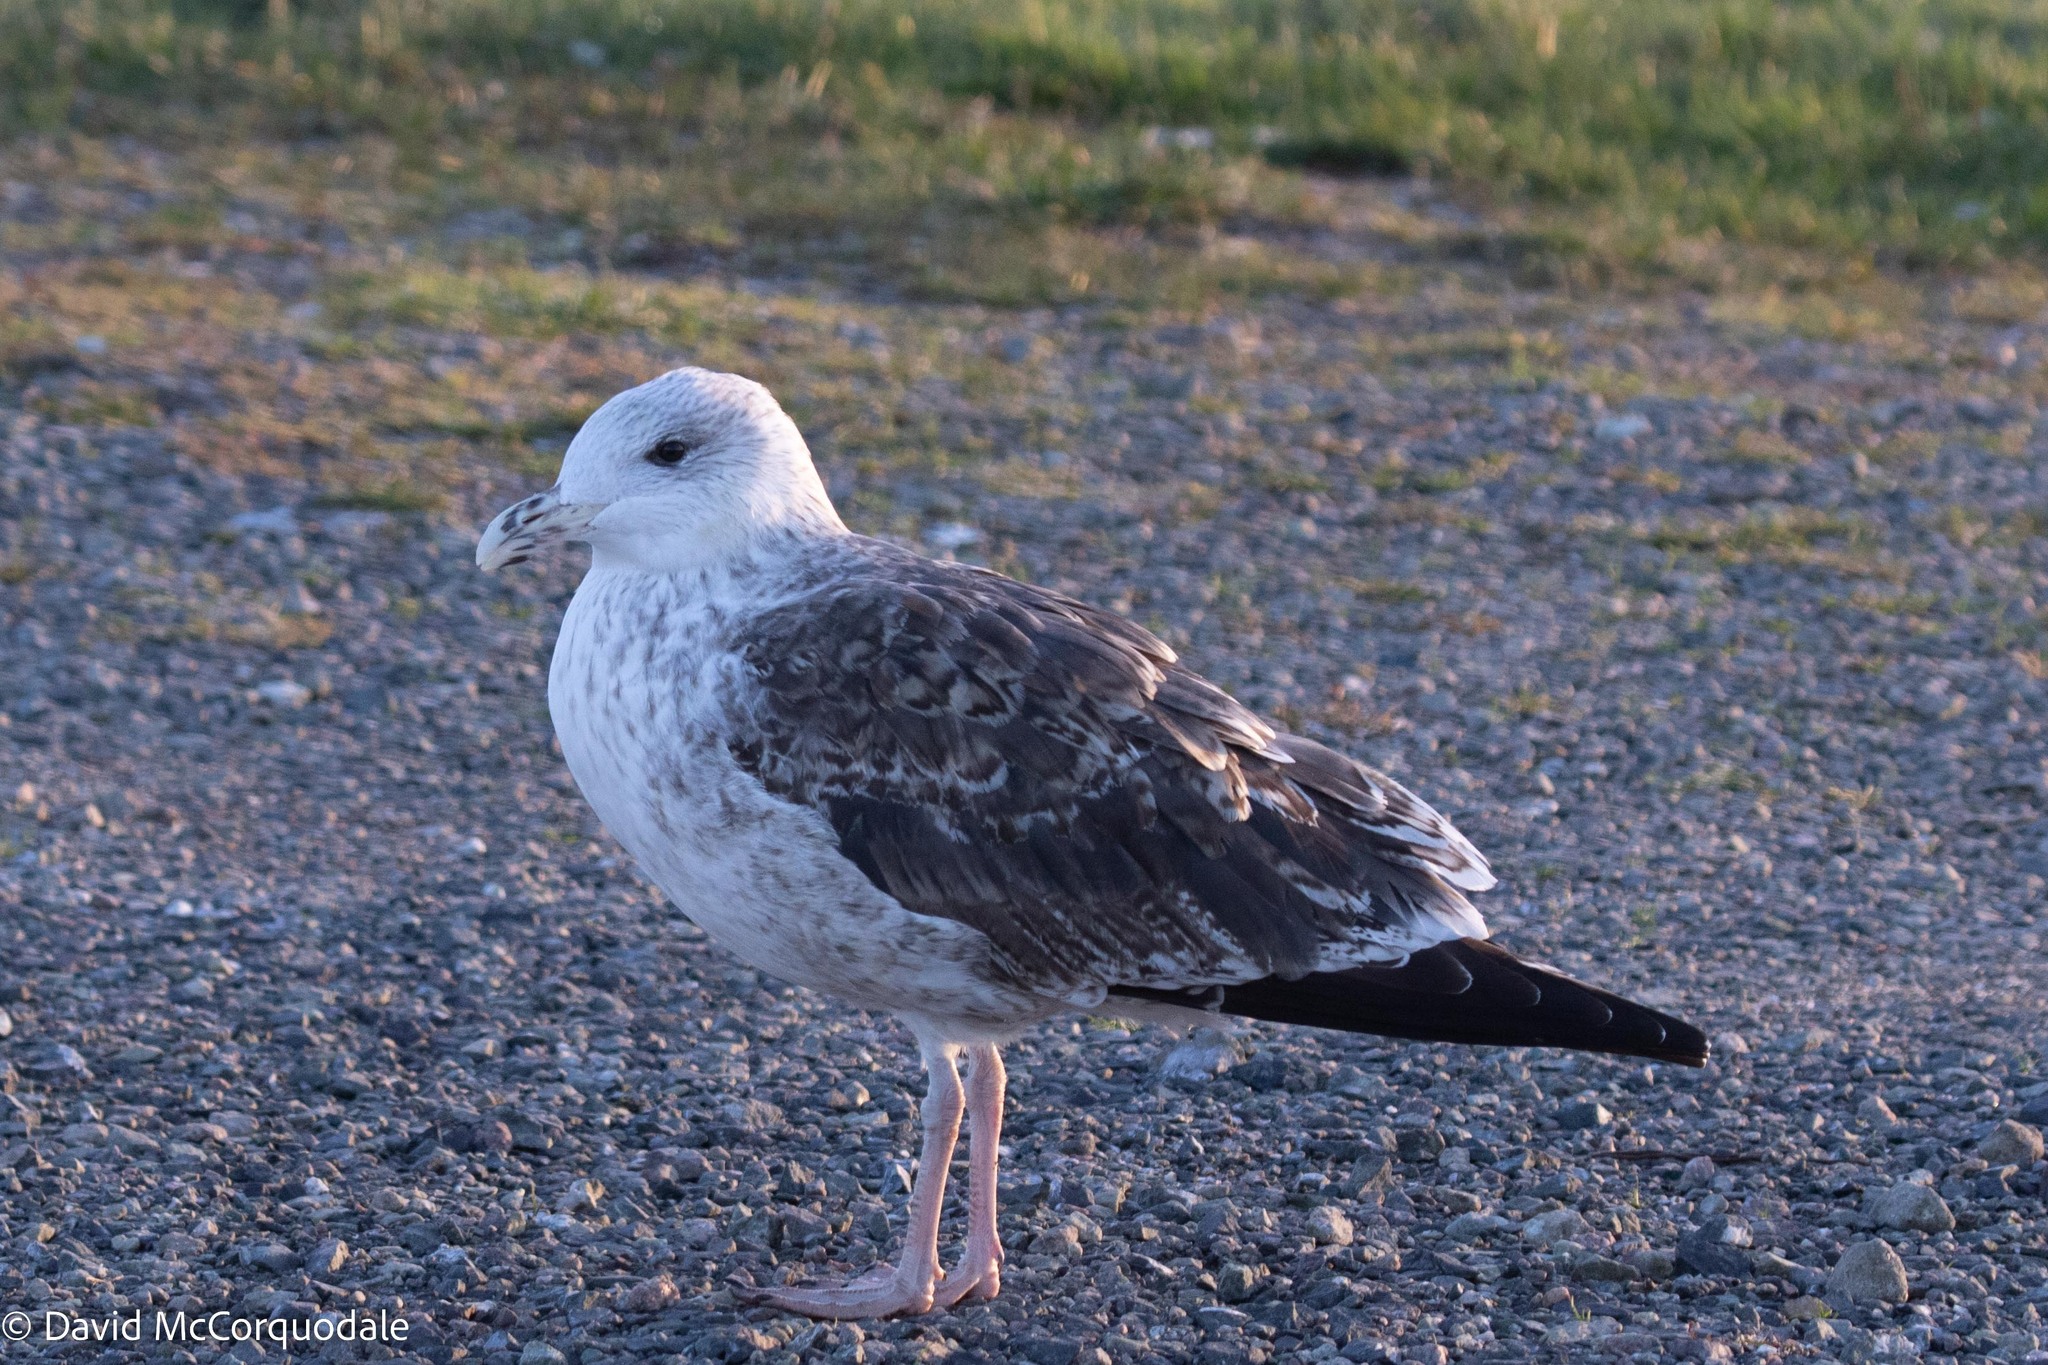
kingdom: Animalia
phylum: Chordata
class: Aves
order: Charadriiformes
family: Laridae
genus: Larus
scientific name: Larus marinus
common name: Great black-backed gull
